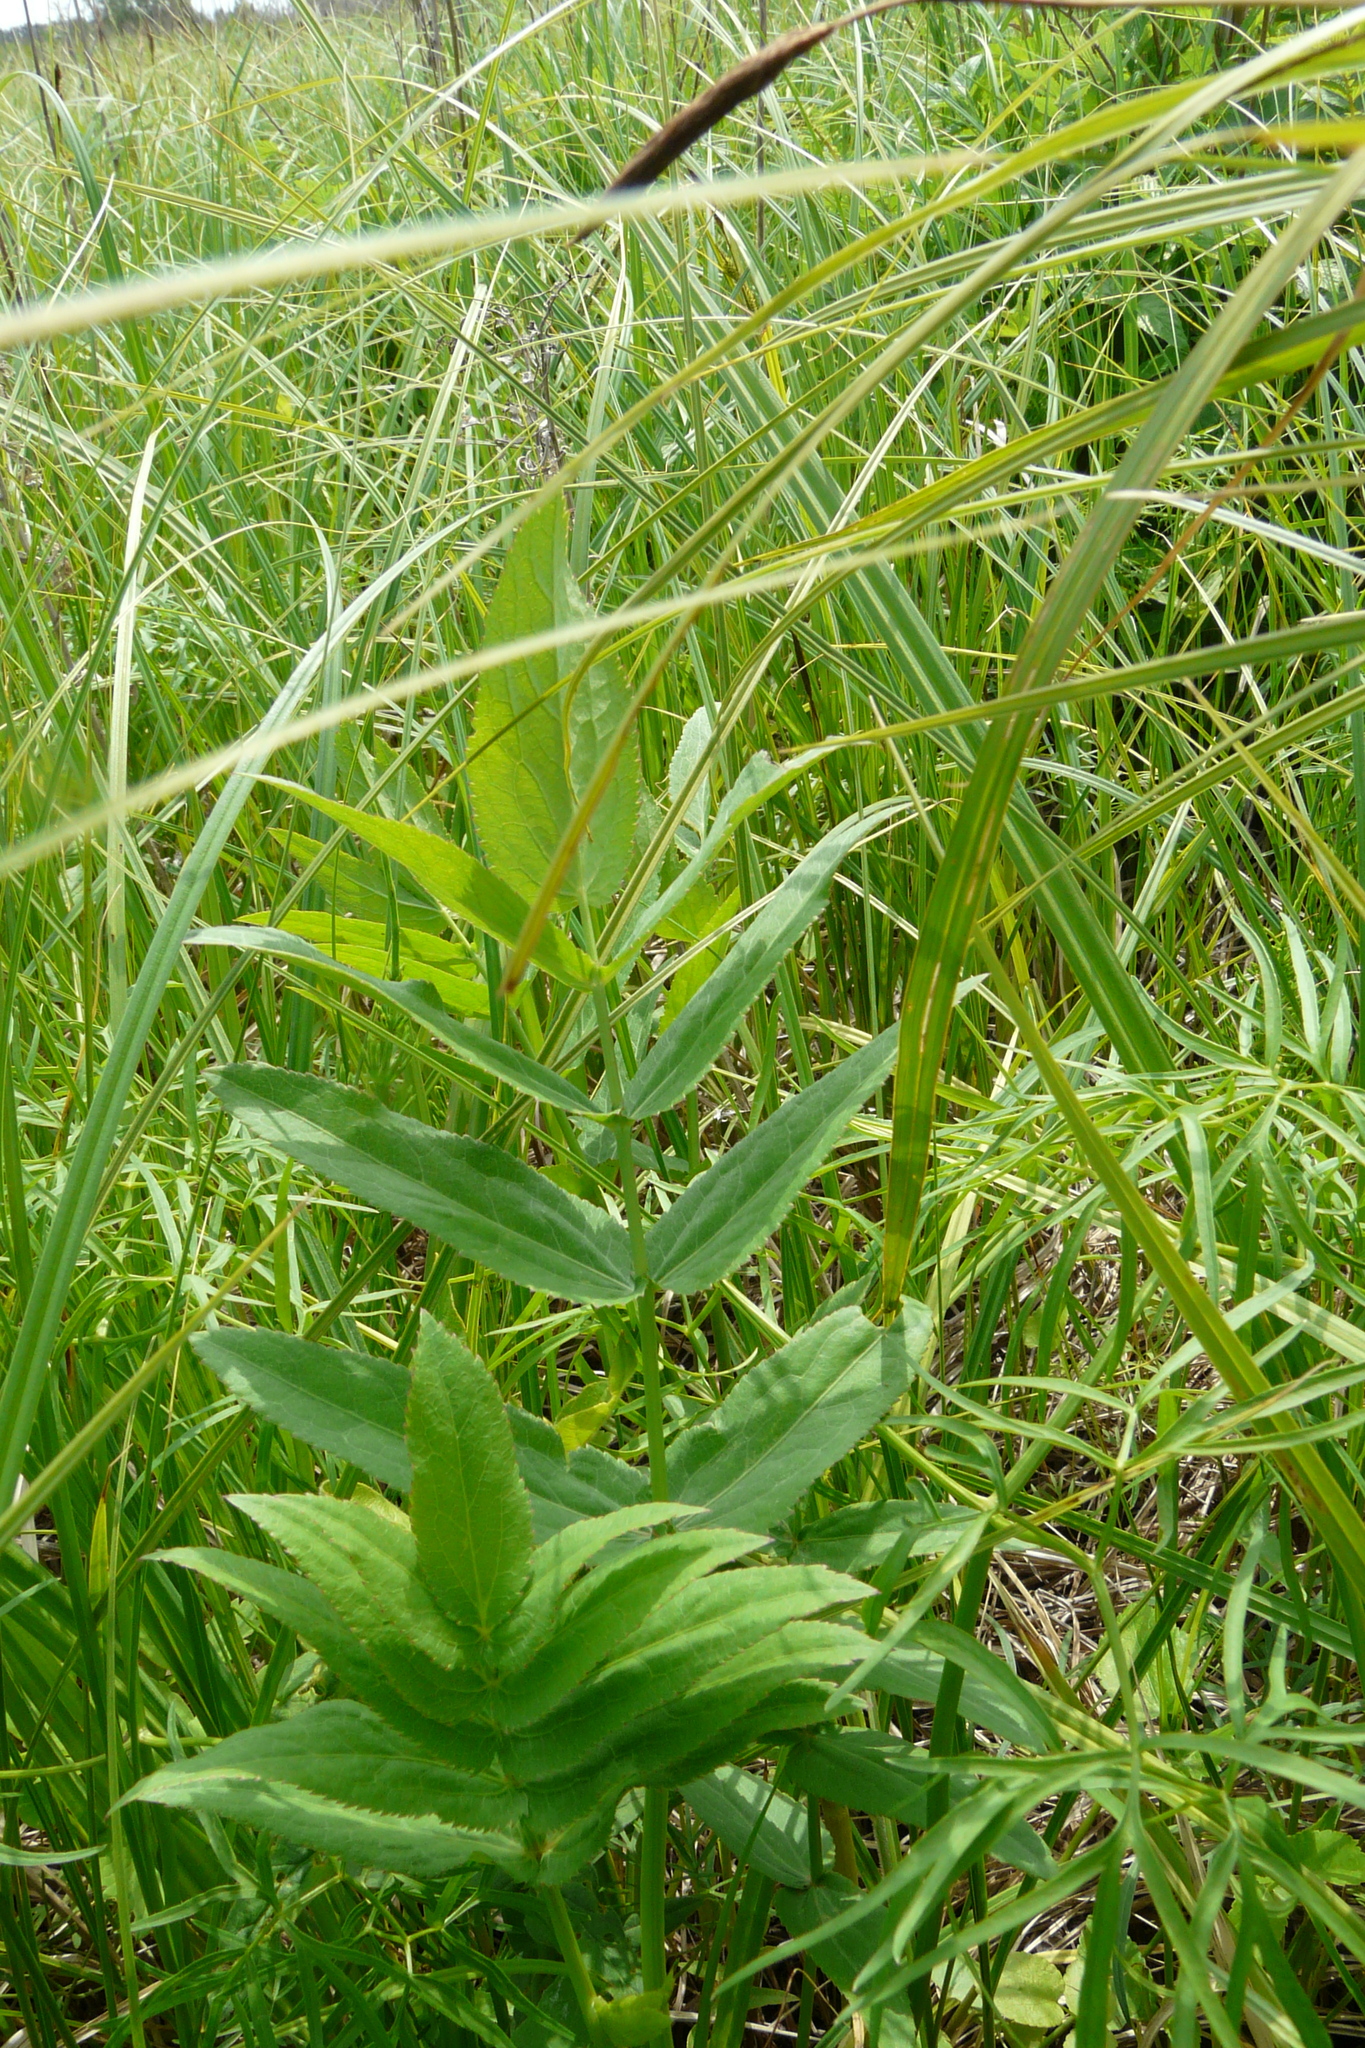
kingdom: Plantae
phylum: Tracheophyta
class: Magnoliopsida
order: Apiales
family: Apiaceae
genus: Sium
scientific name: Sium sisarum
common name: Skirret
